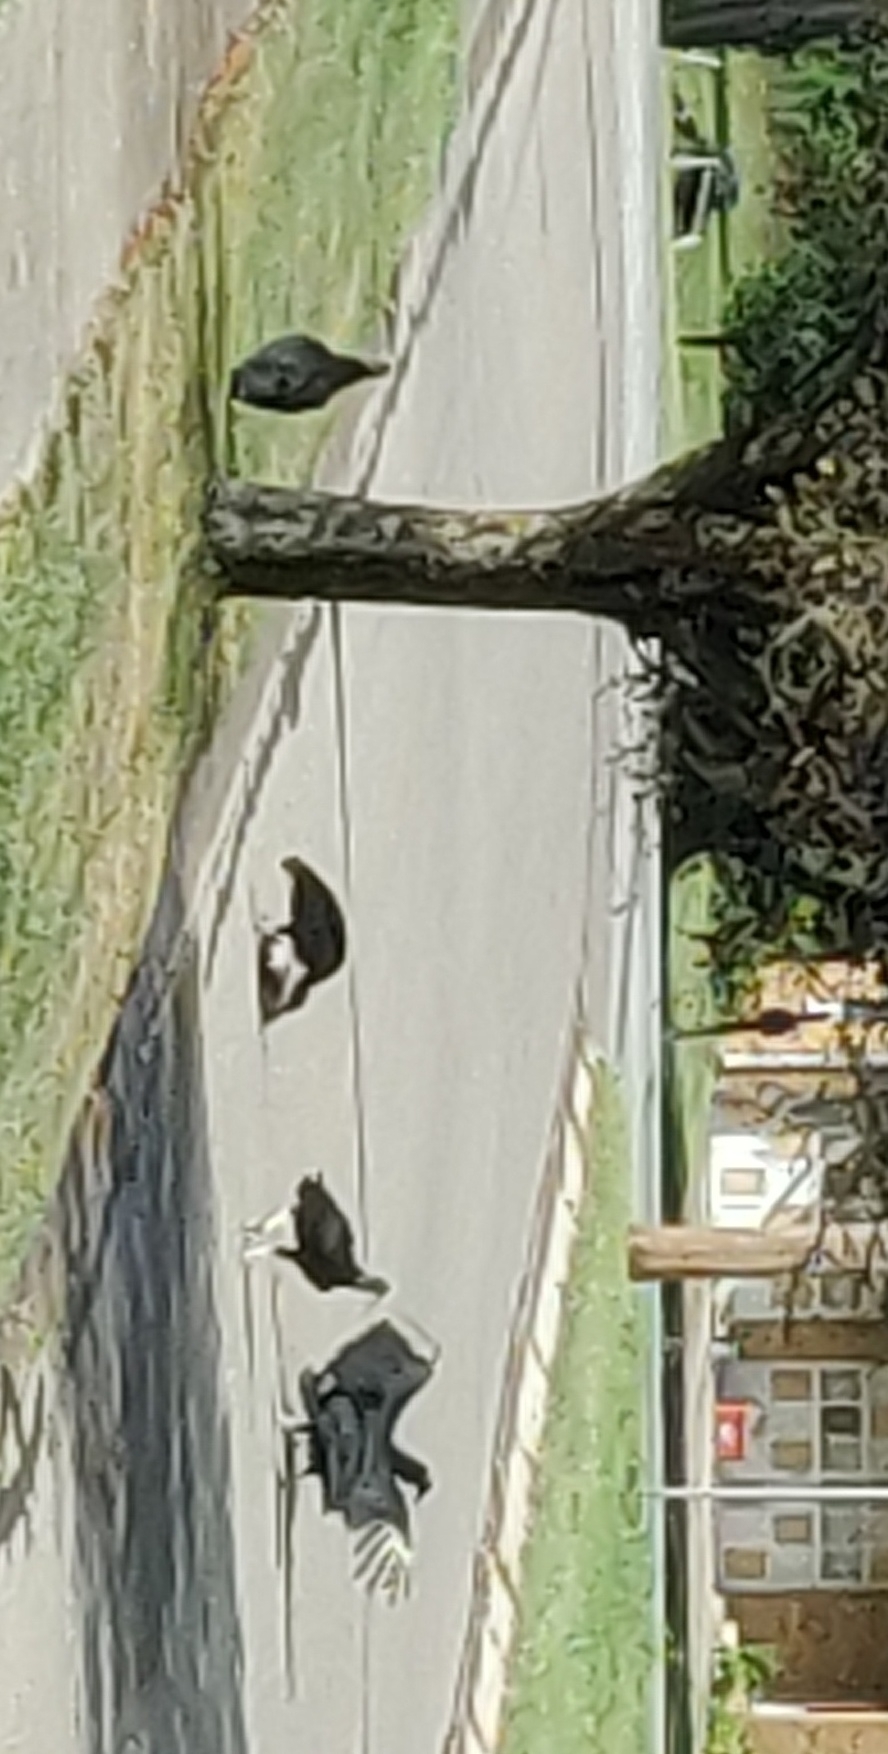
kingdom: Animalia
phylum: Chordata
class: Aves
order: Accipitriformes
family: Cathartidae
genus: Coragyps
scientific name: Coragyps atratus
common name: Black vulture
